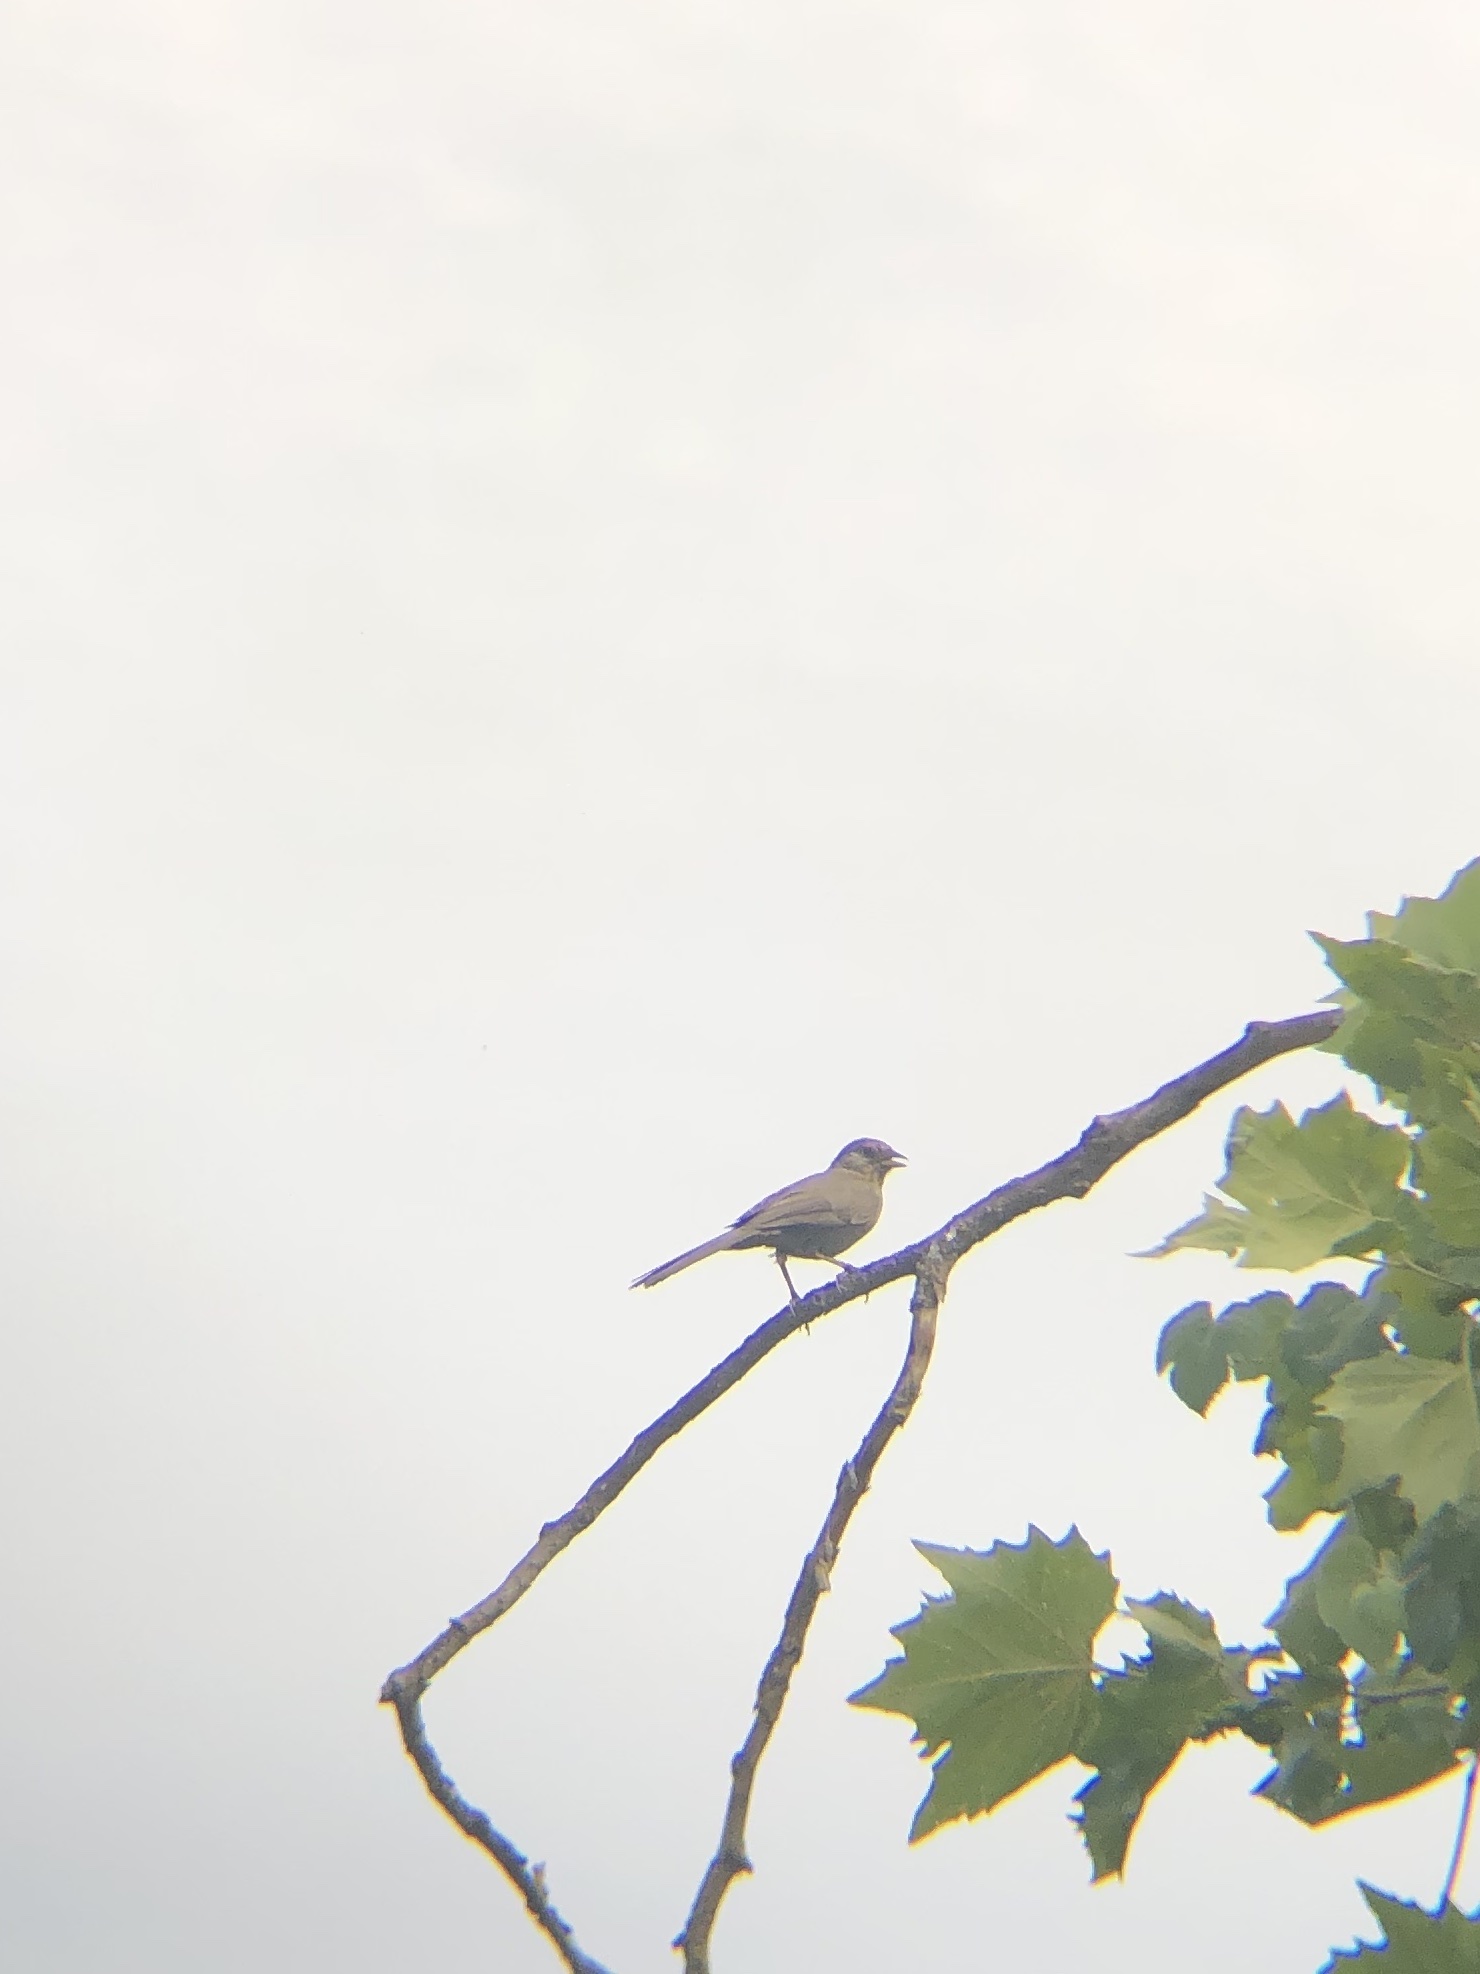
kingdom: Animalia
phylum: Chordata
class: Aves
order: Passeriformes
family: Passerellidae
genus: Melozone
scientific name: Melozone crissalis
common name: California towhee
